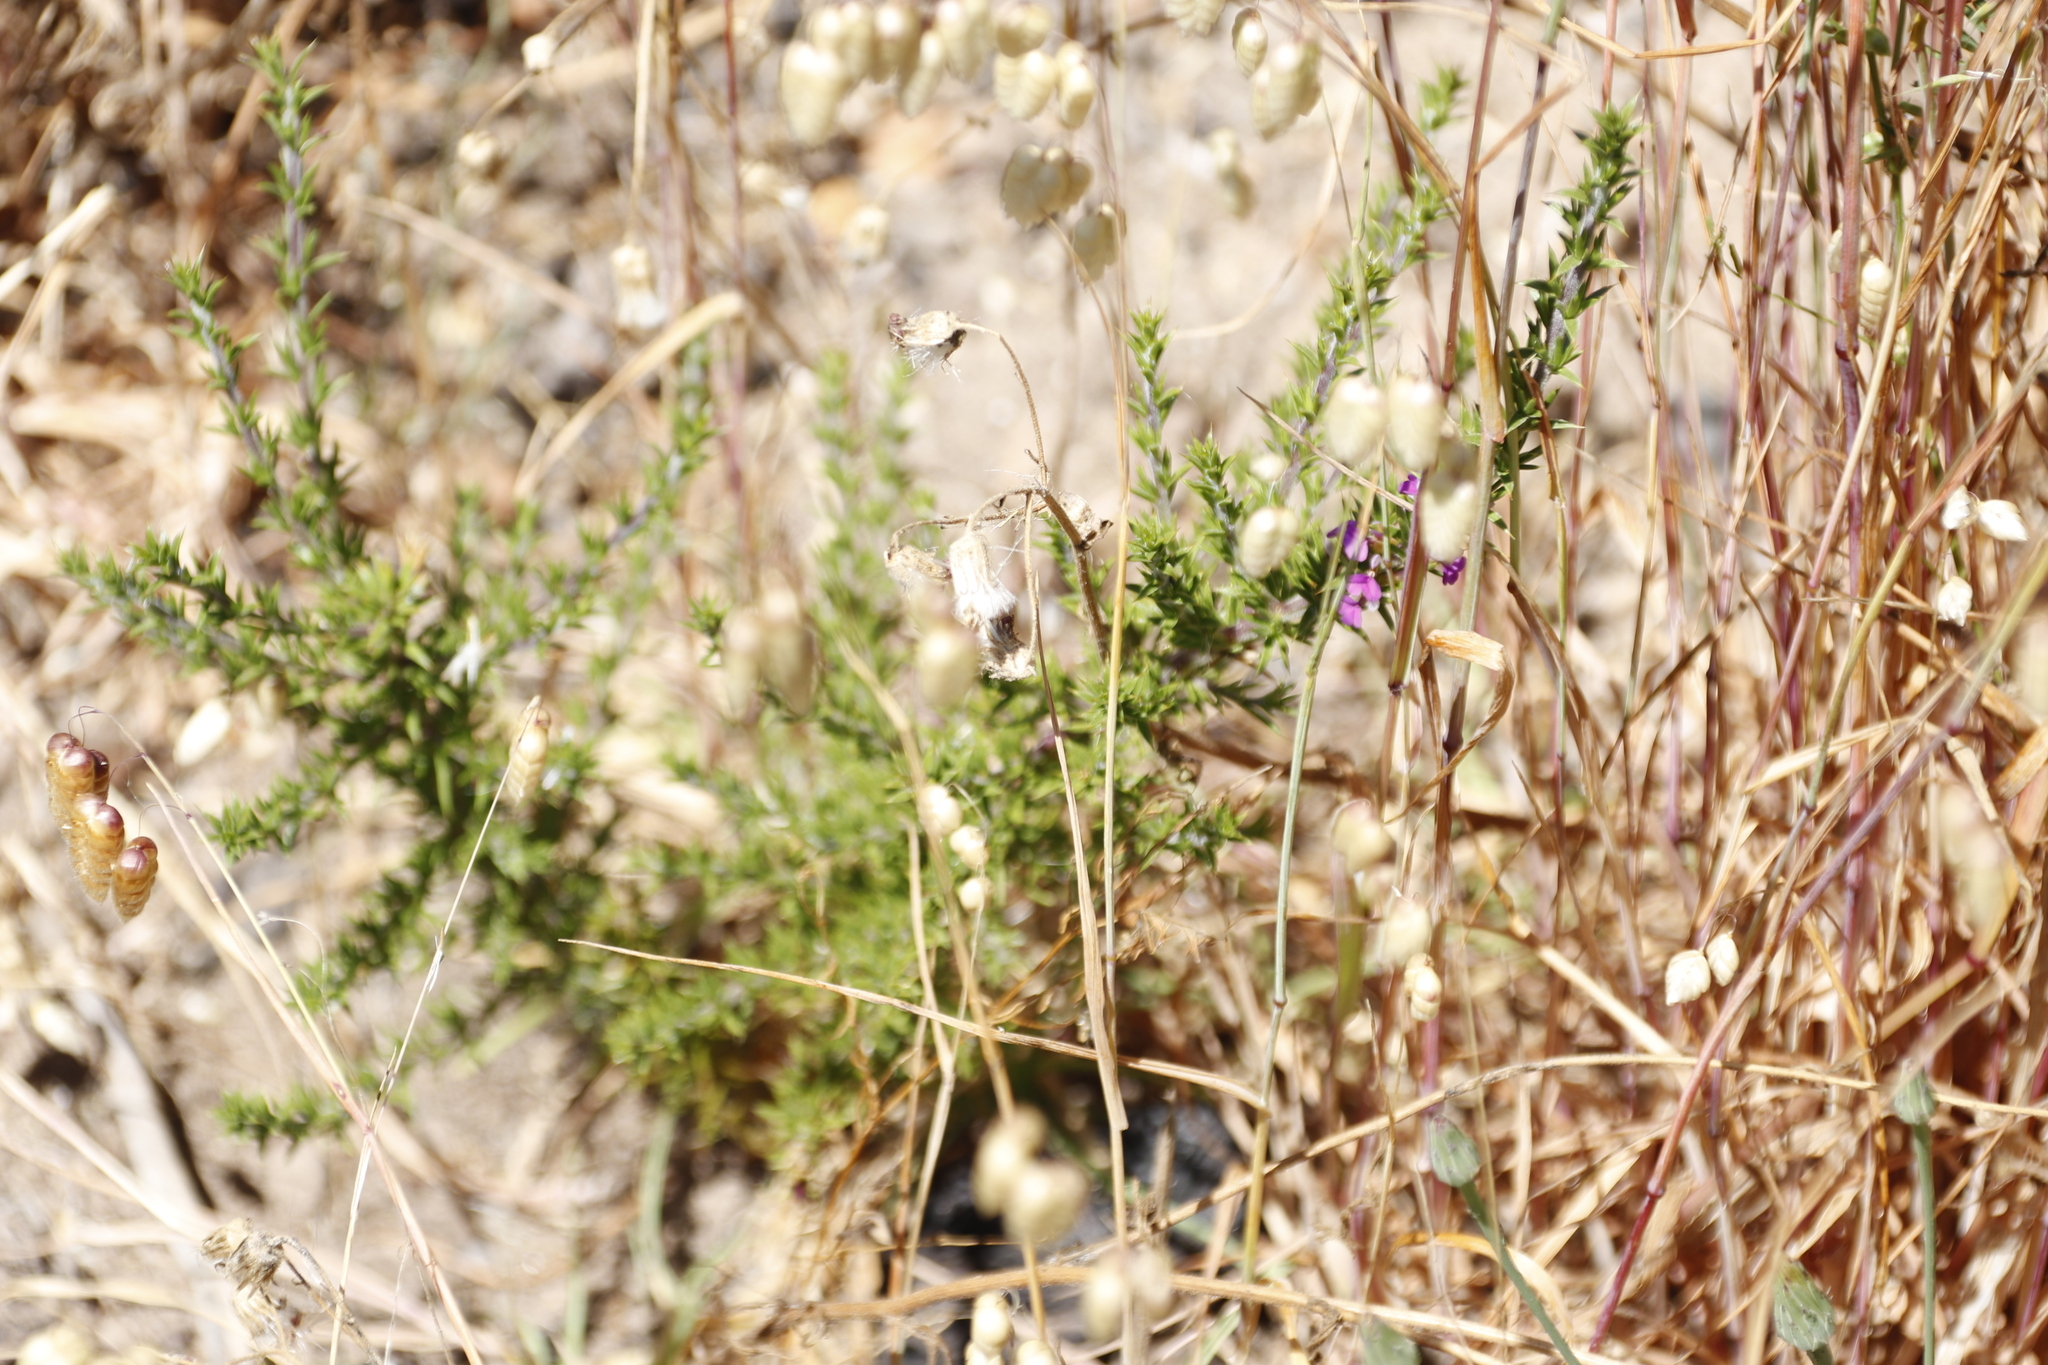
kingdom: Plantae
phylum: Tracheophyta
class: Magnoliopsida
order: Fabales
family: Polygalaceae
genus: Muraltia
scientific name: Muraltia heisteria
